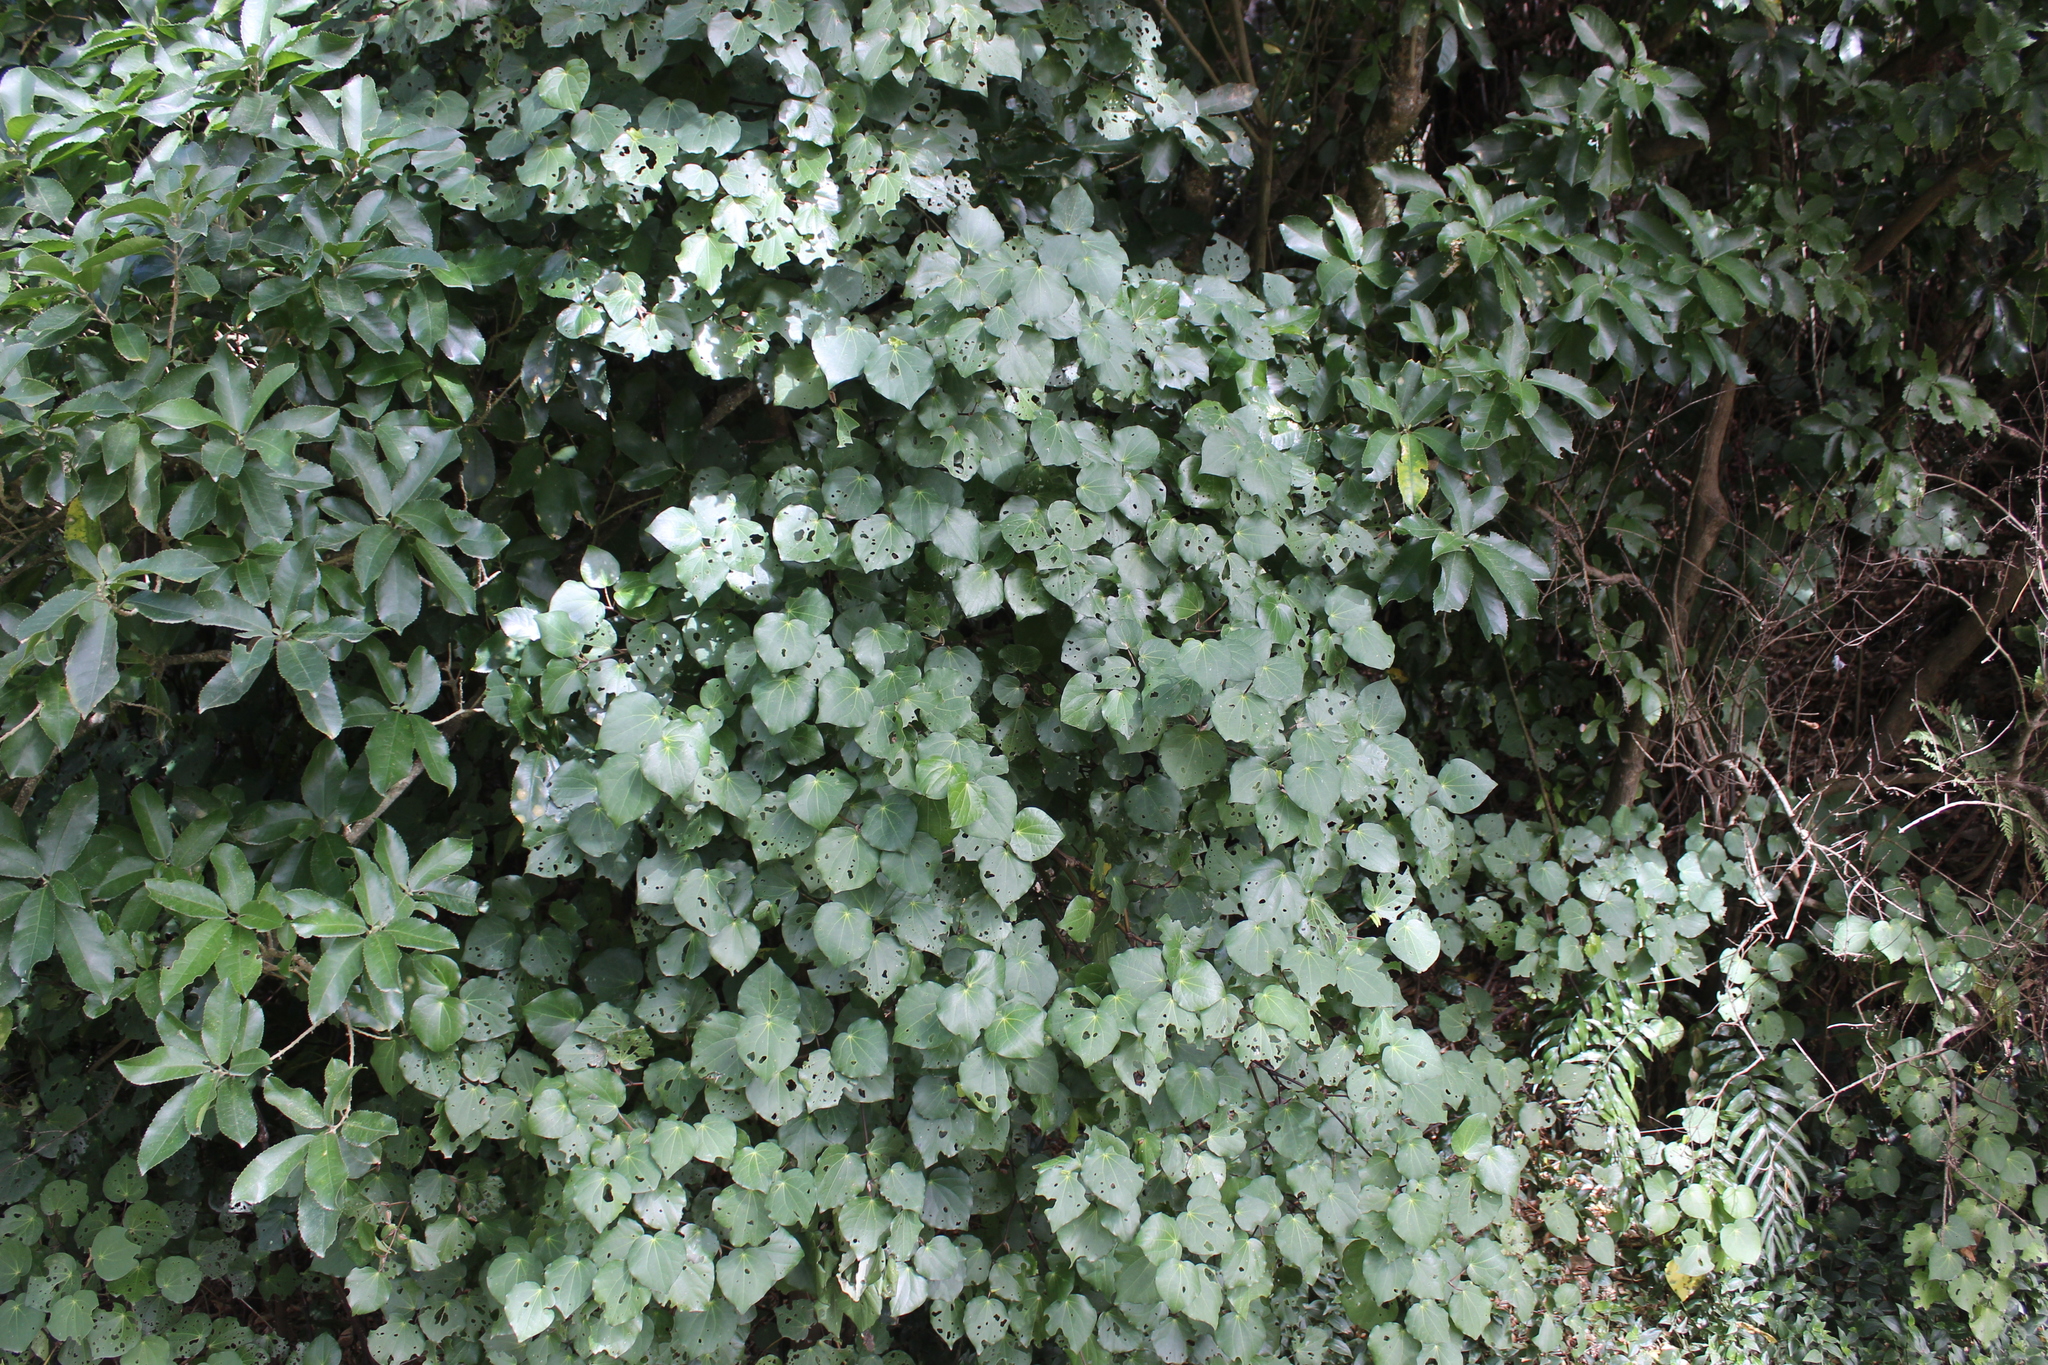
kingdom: Plantae
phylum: Tracheophyta
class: Magnoliopsida
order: Piperales
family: Piperaceae
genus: Macropiper
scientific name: Macropiper excelsum
